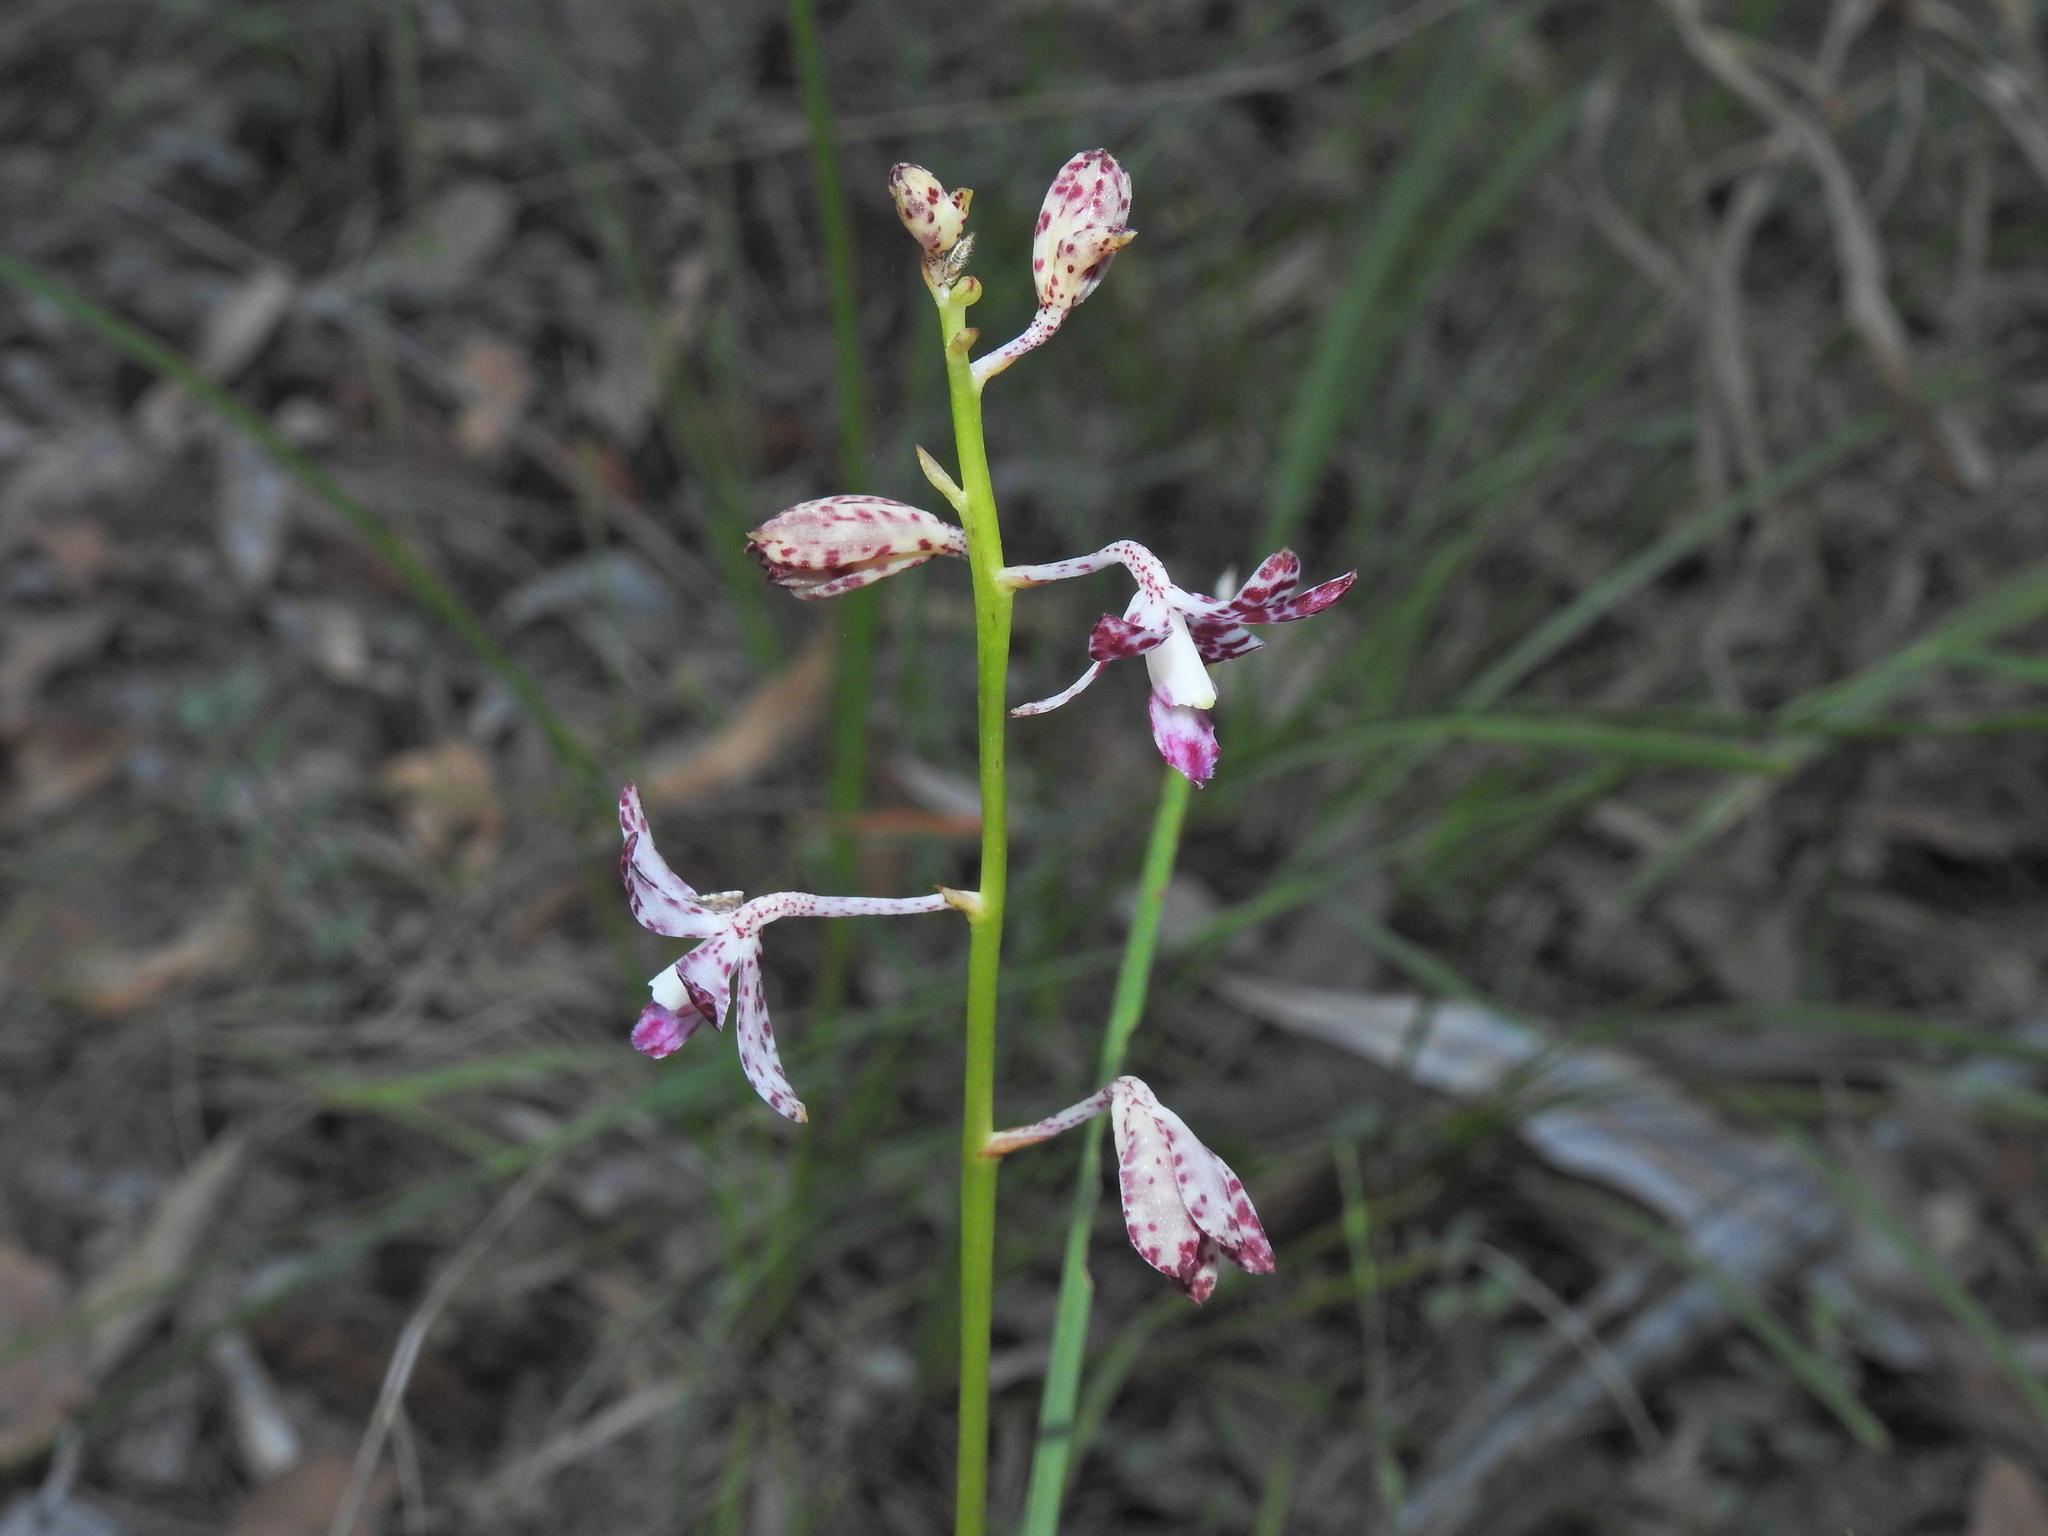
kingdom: Plantae
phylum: Tracheophyta
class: Liliopsida
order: Asparagales
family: Orchidaceae
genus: Dipodium
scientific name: Dipodium variegatum
